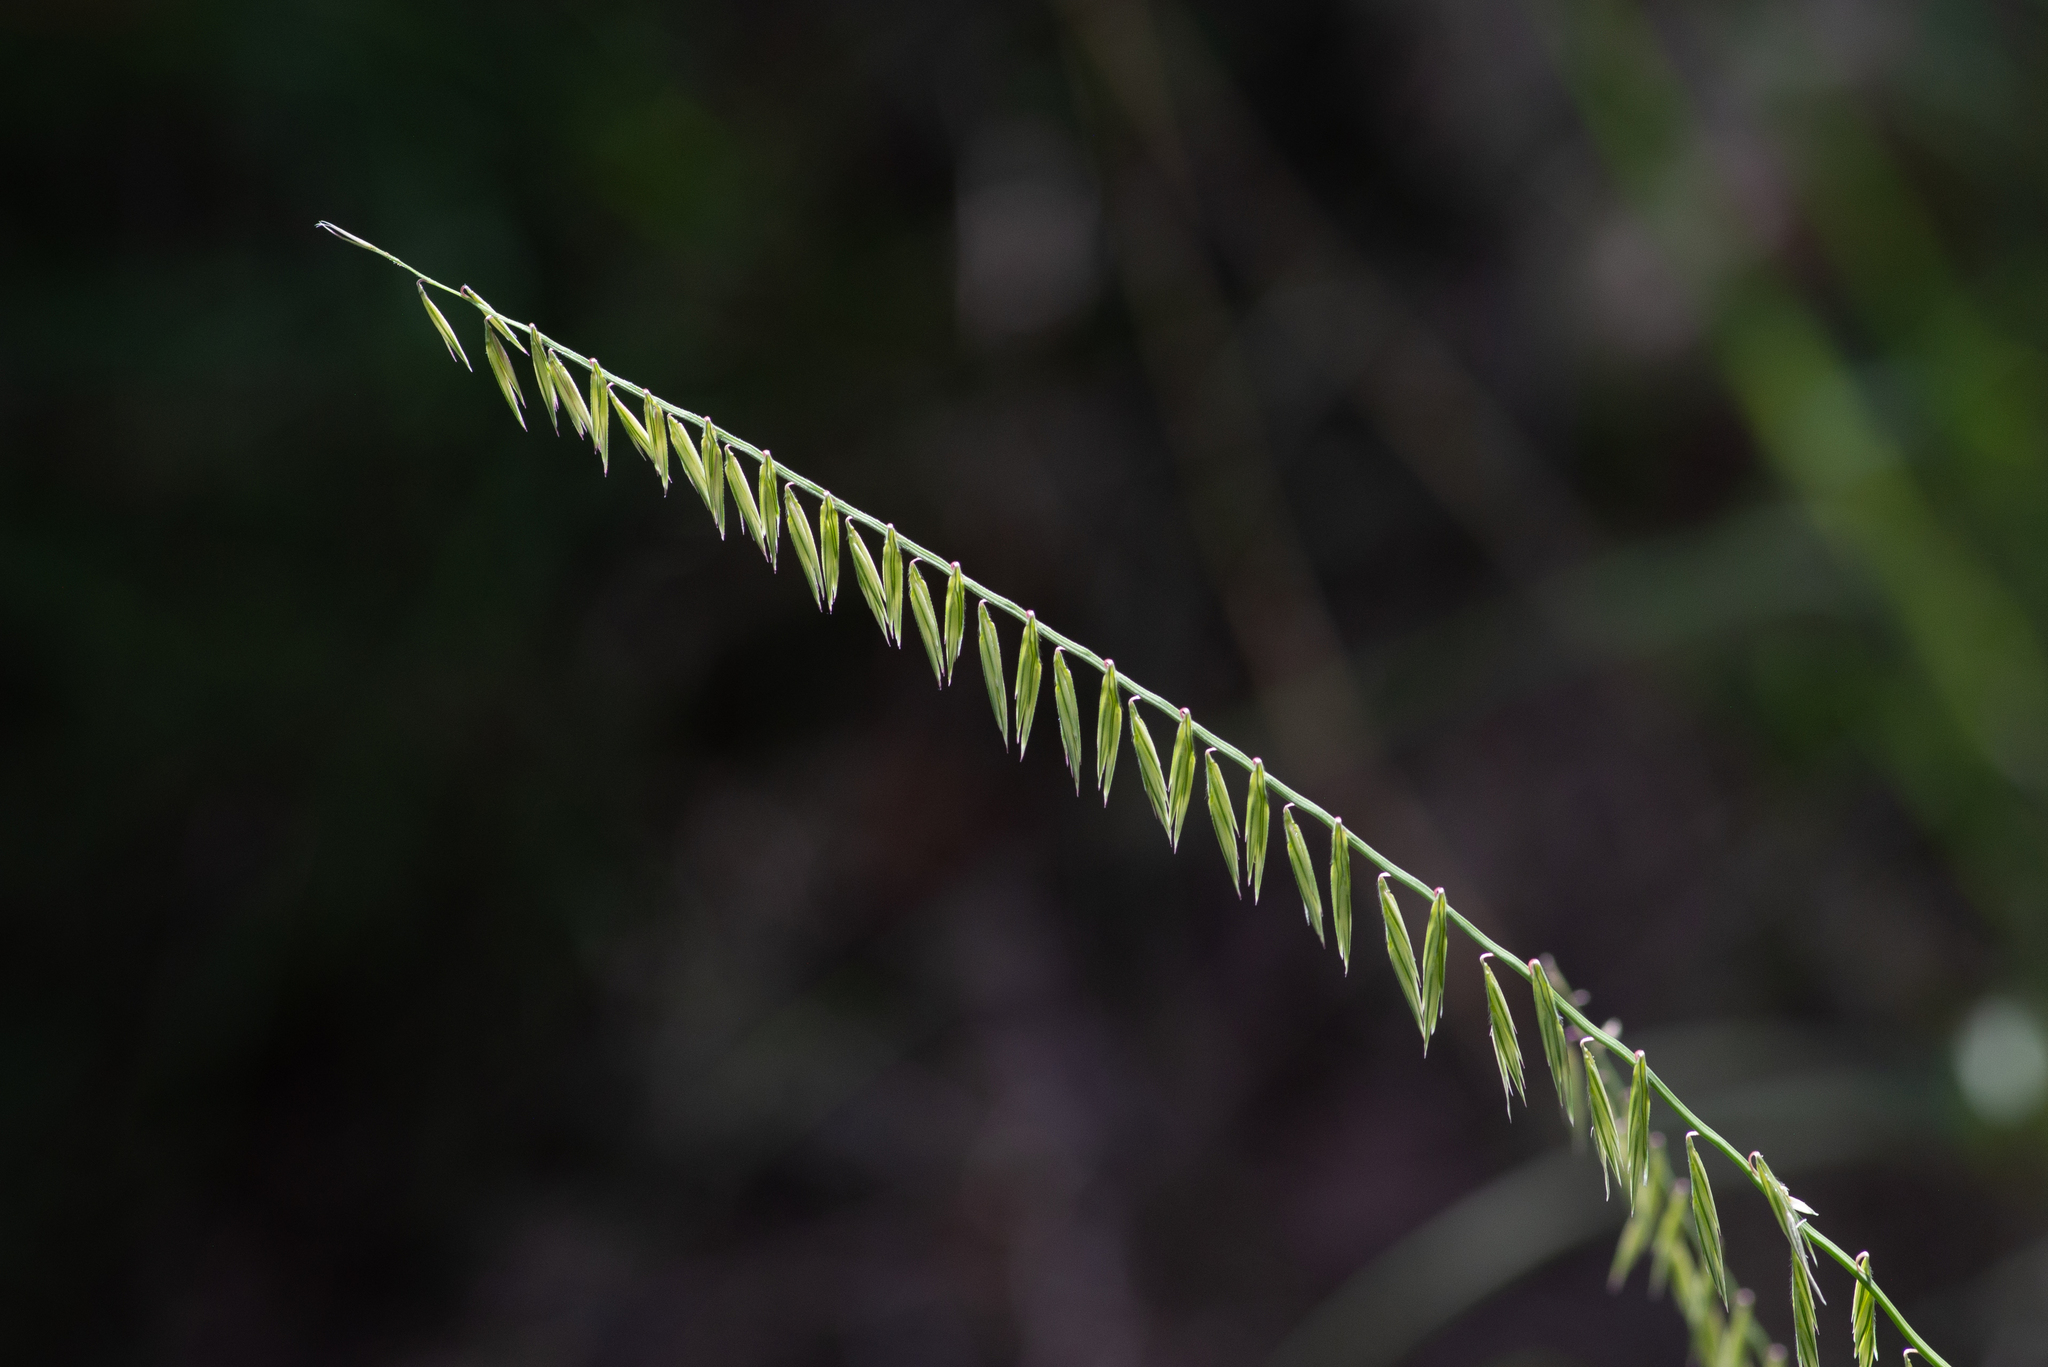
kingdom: Plantae
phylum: Tracheophyta
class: Liliopsida
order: Poales
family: Poaceae
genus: Bouteloua
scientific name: Bouteloua curtipendula
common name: Side-oats grama
